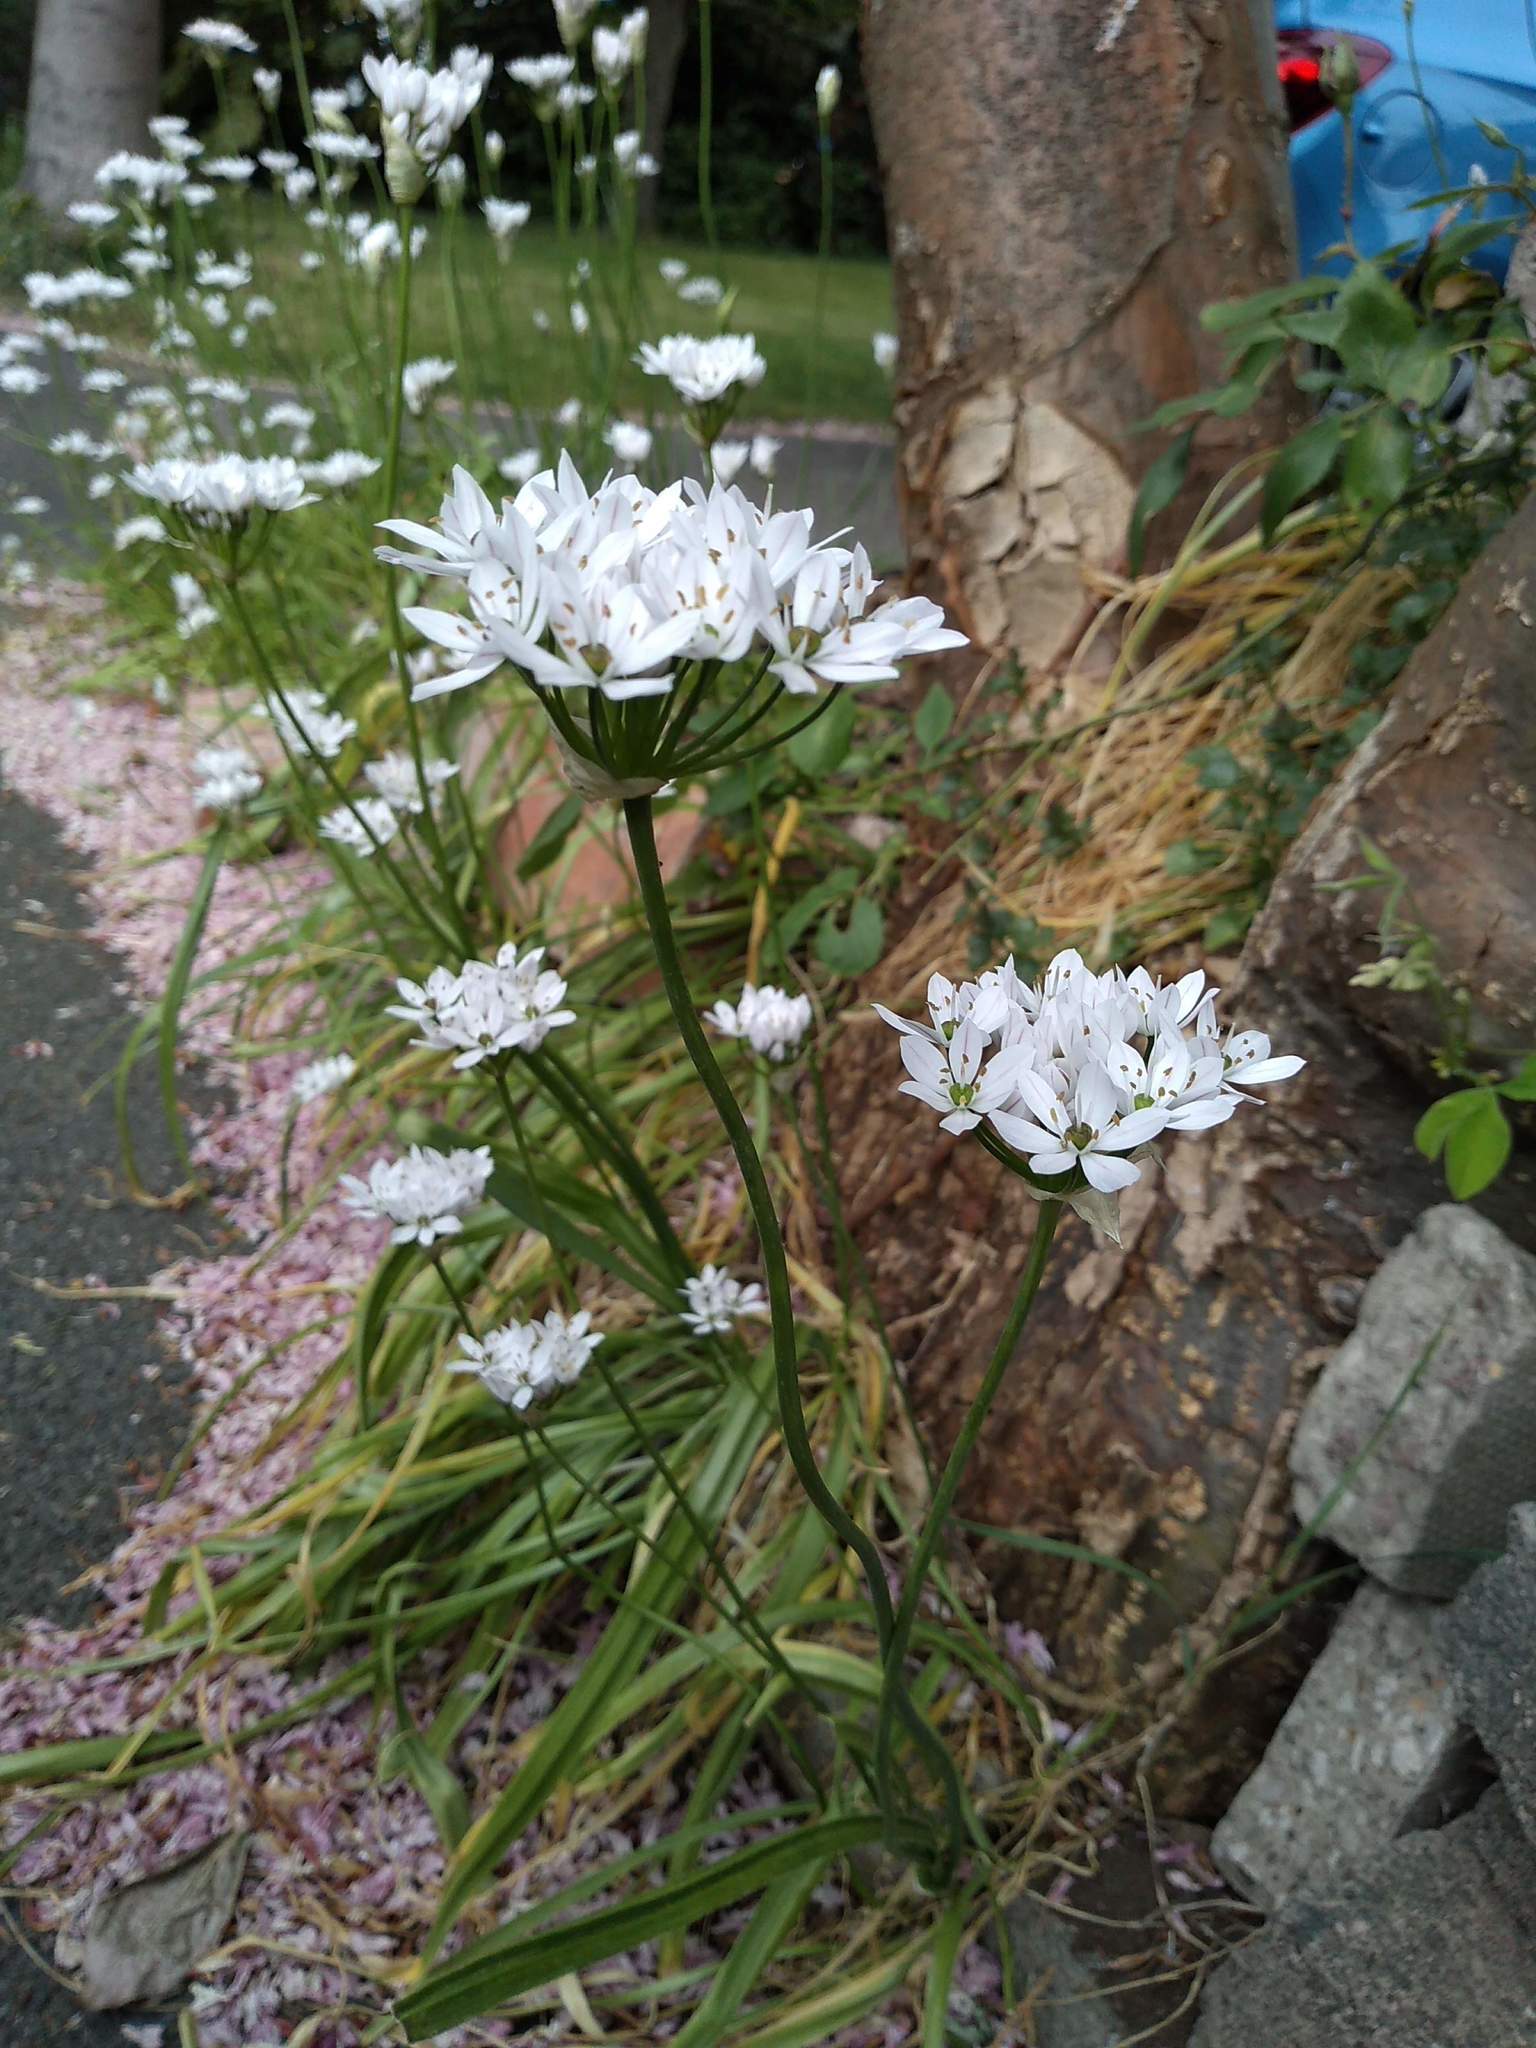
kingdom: Plantae
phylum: Tracheophyta
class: Liliopsida
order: Asparagales
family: Amaryllidaceae
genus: Allium
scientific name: Allium neapolitanum
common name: Neapolitan garlic
